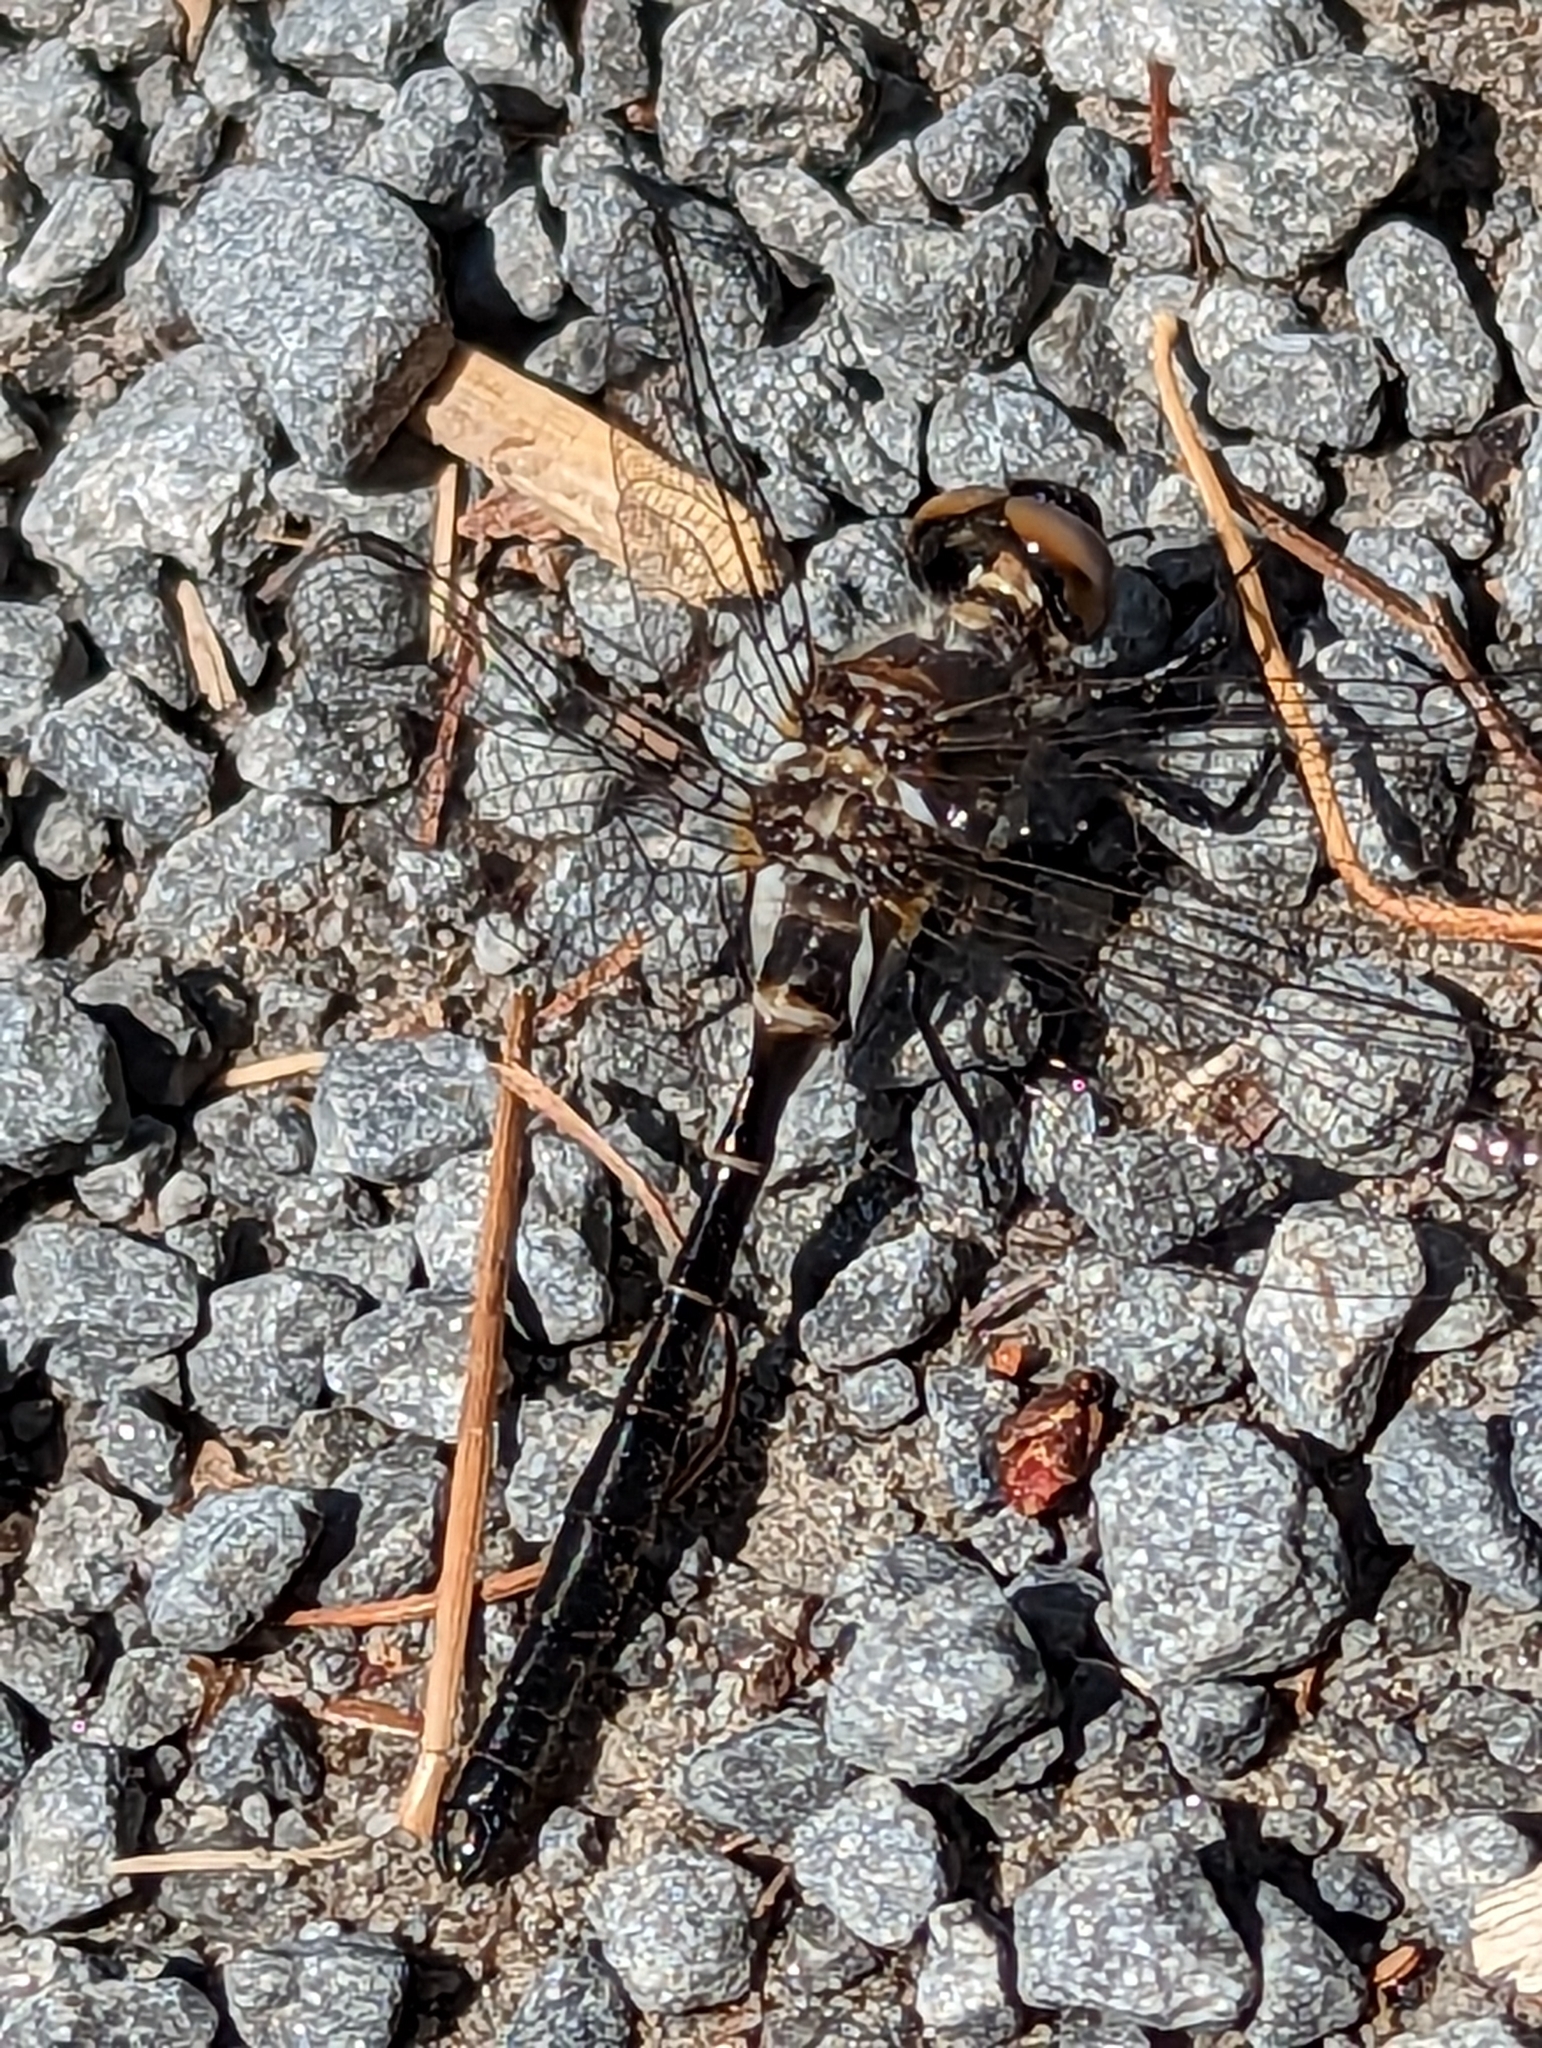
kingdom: Animalia
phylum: Arthropoda
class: Insecta
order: Odonata
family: Corduliidae
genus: Williamsonia
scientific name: Williamsonia fletcheri
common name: Ebony boghaunter
